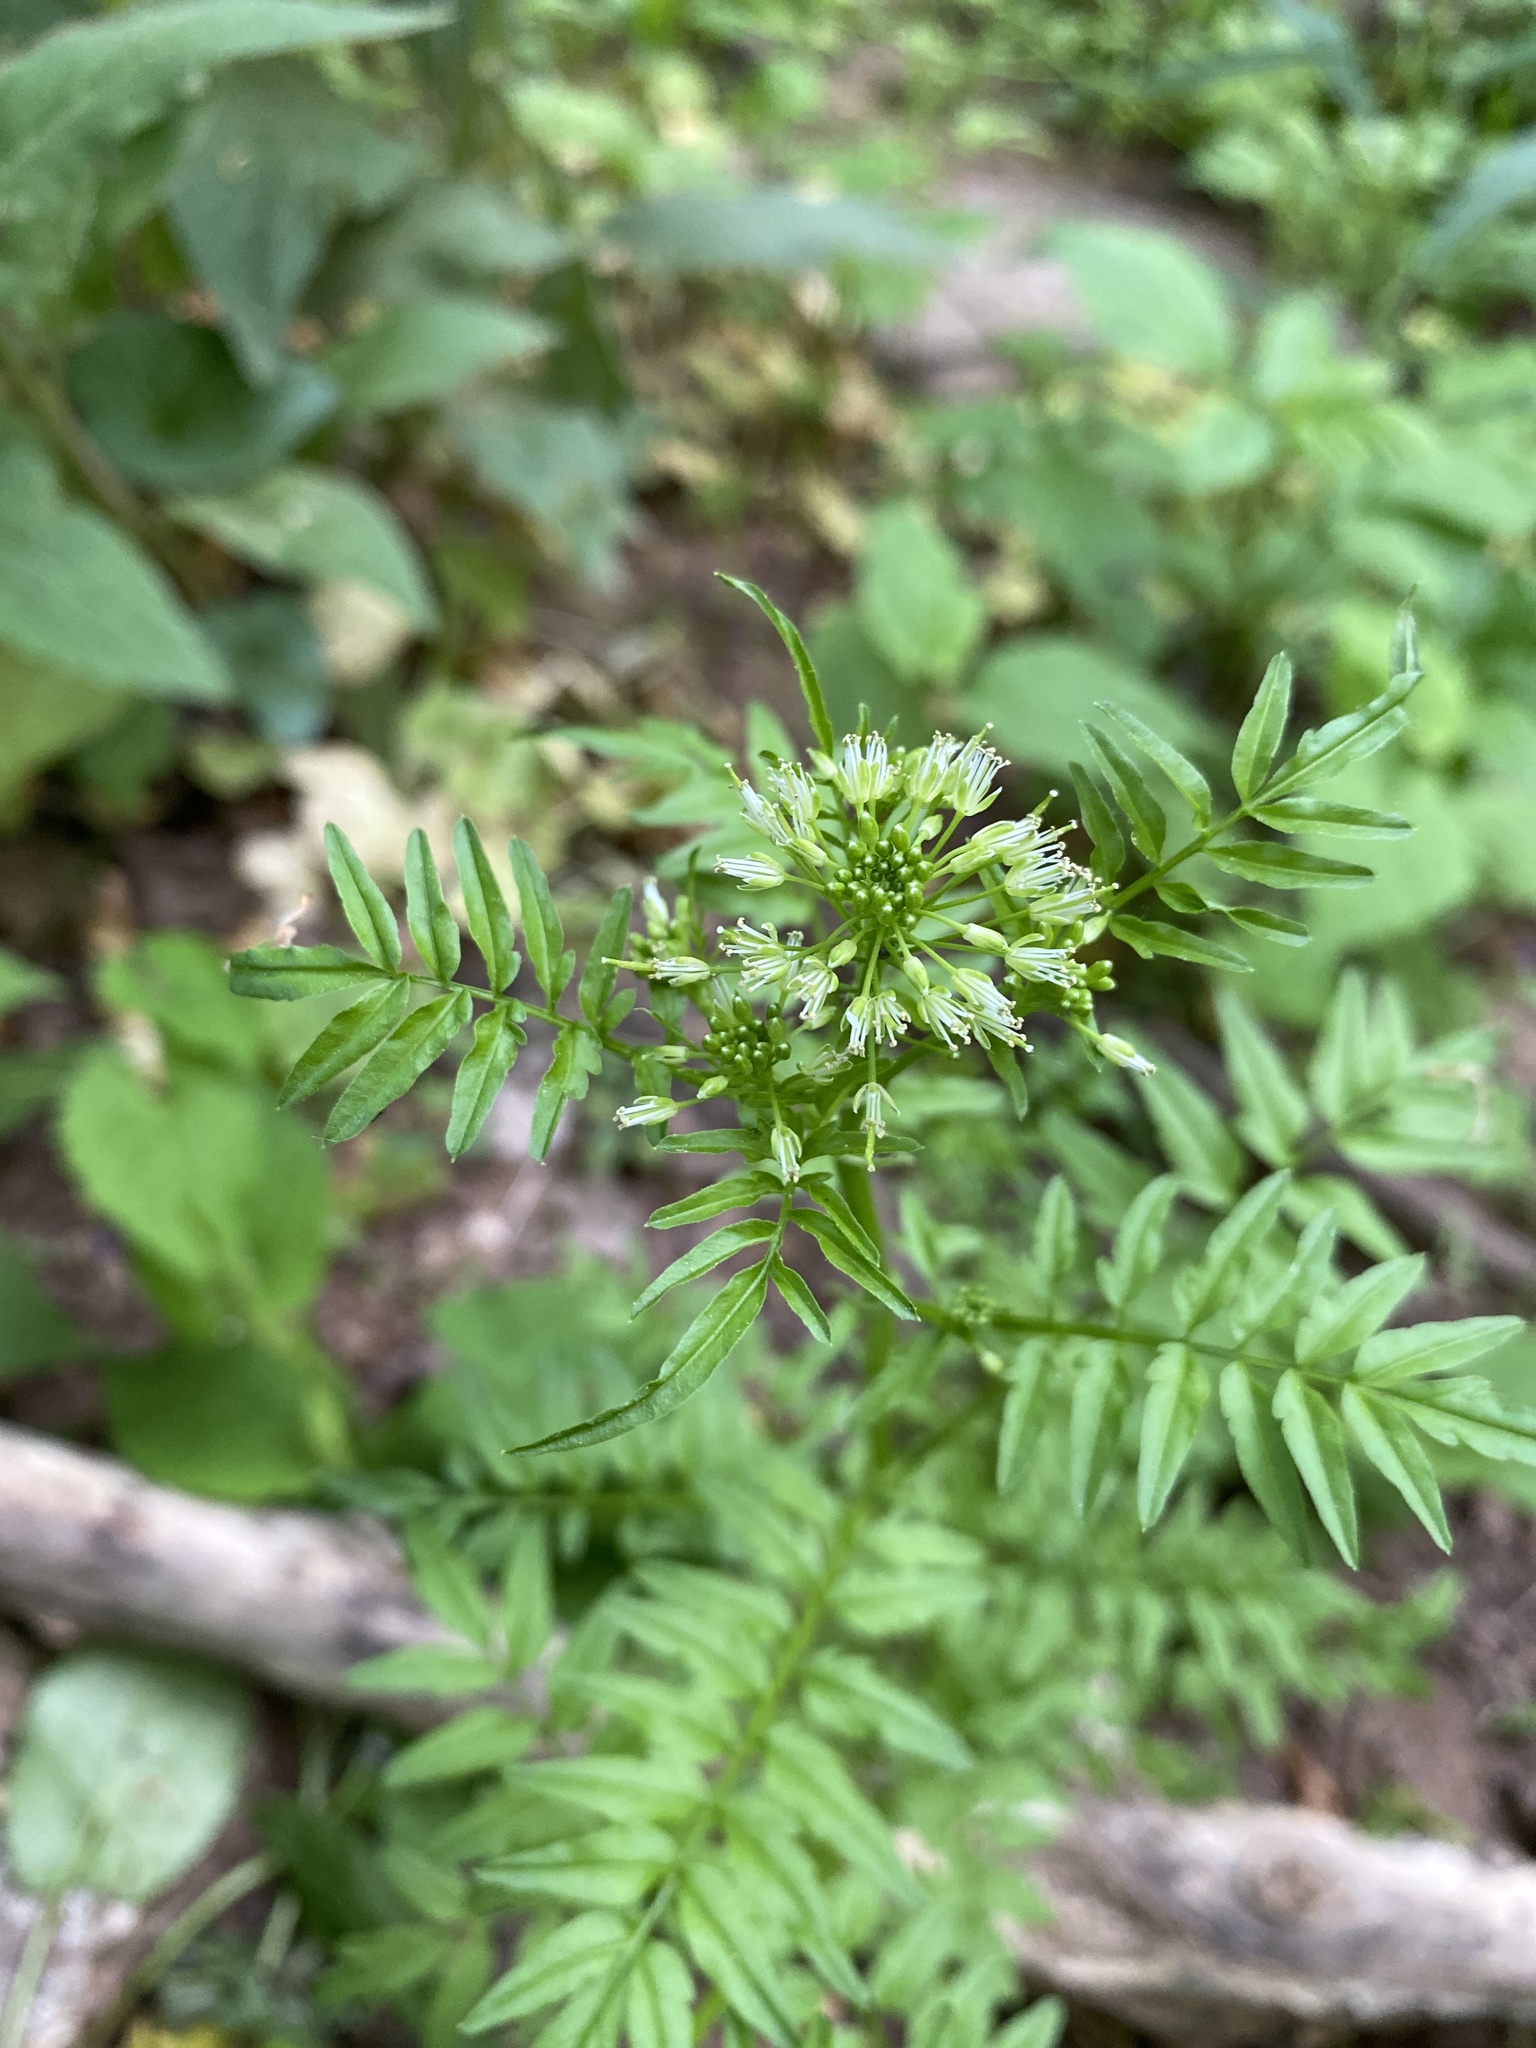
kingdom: Plantae
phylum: Tracheophyta
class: Magnoliopsida
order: Brassicales
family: Brassicaceae
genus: Cardamine
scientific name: Cardamine impatiens
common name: Narrow-leaved bitter-cress
